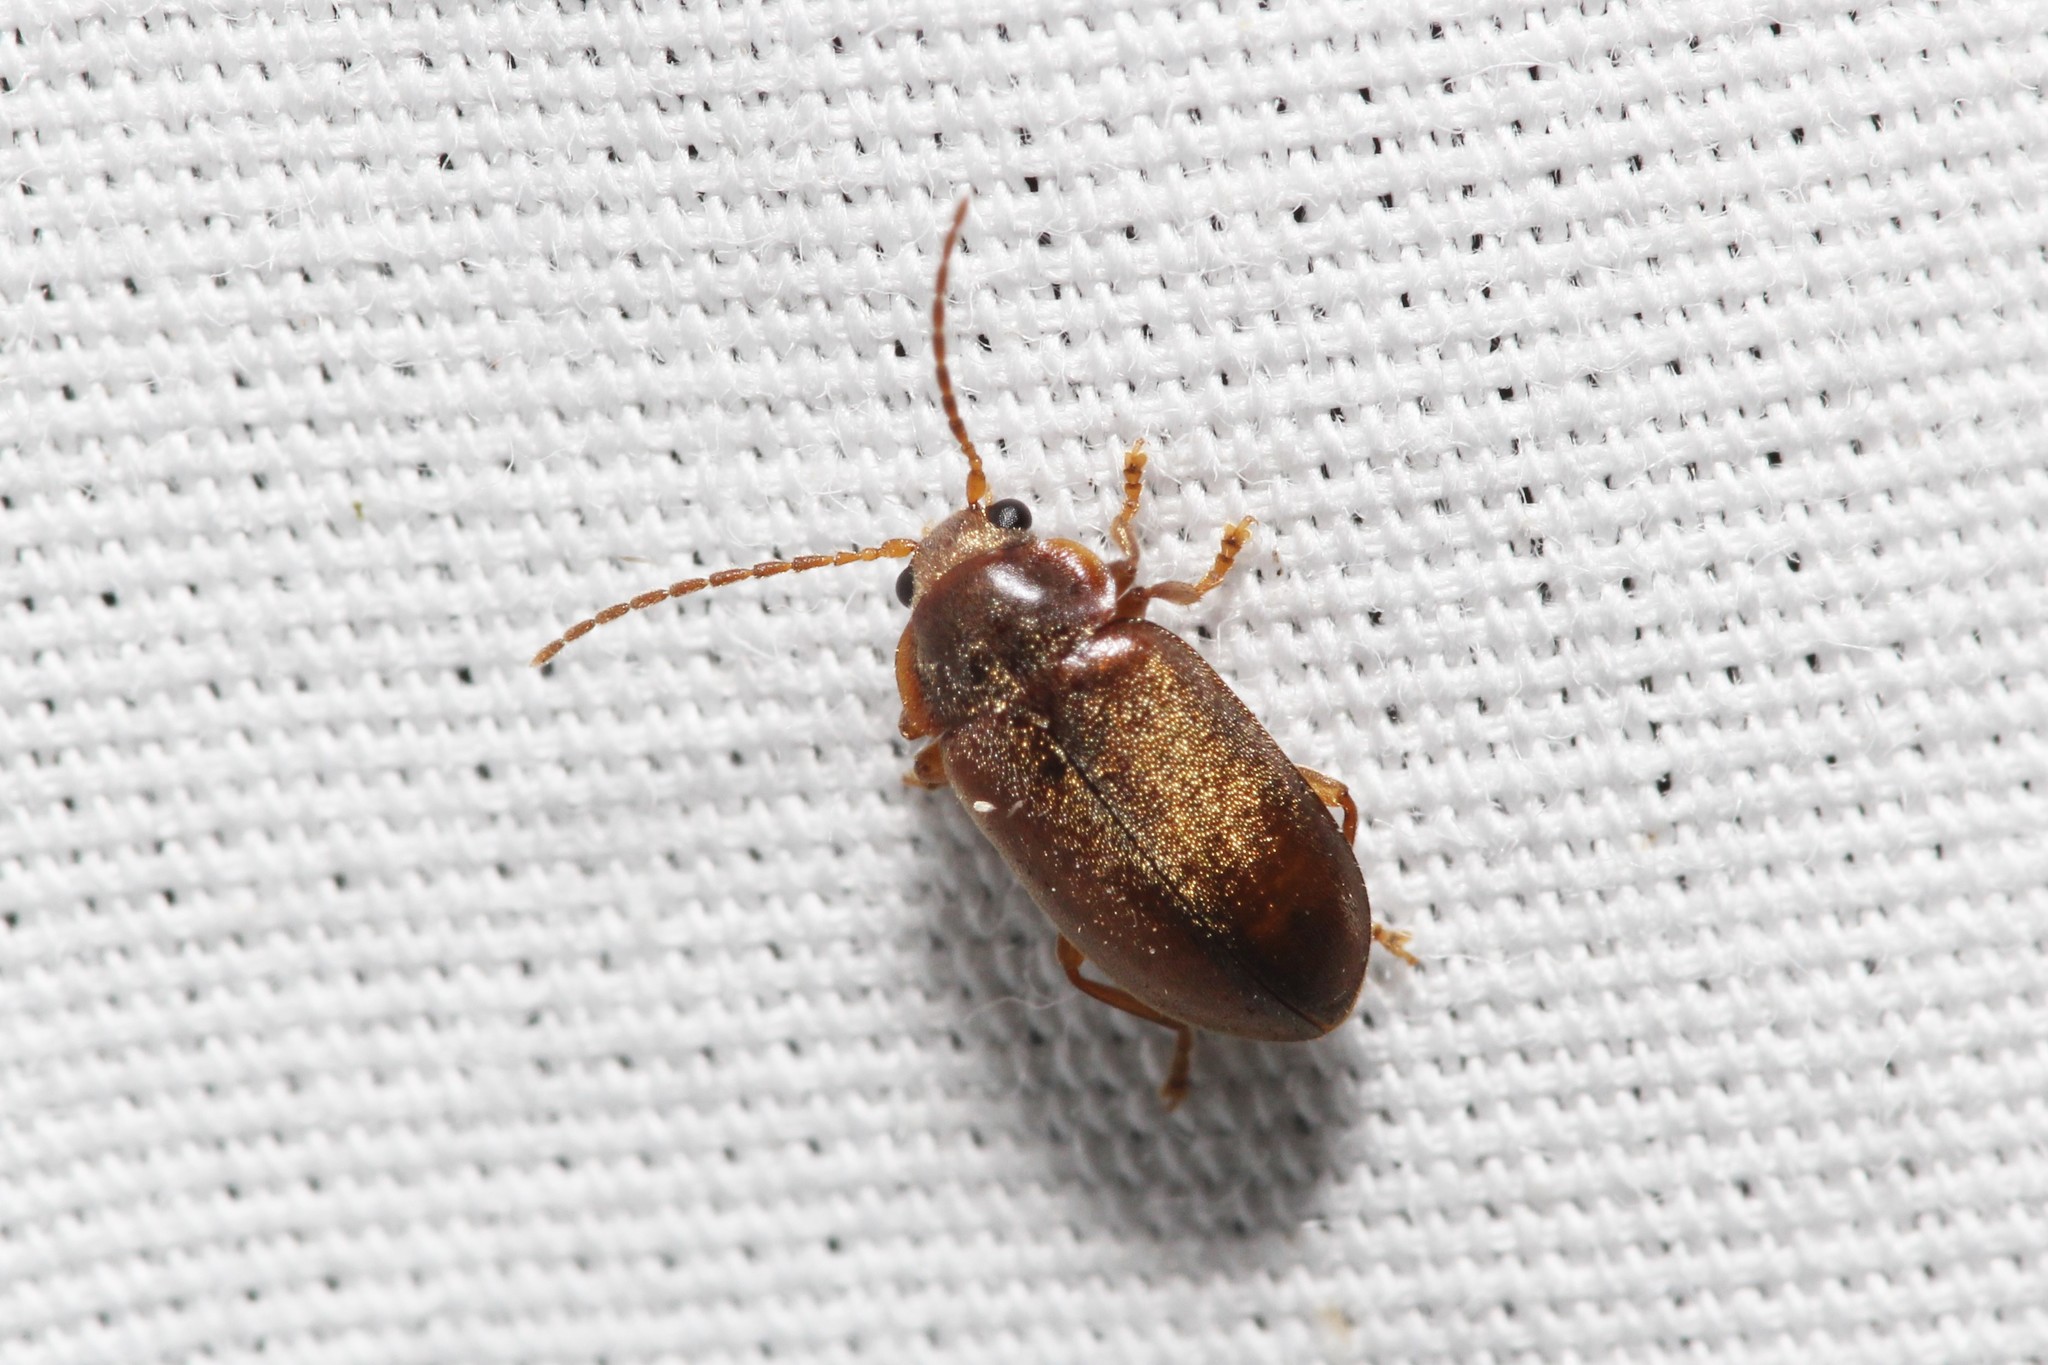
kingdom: Animalia
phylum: Arthropoda
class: Insecta
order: Coleoptera
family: Scirtidae
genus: Microcara
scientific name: Microcara explanata
